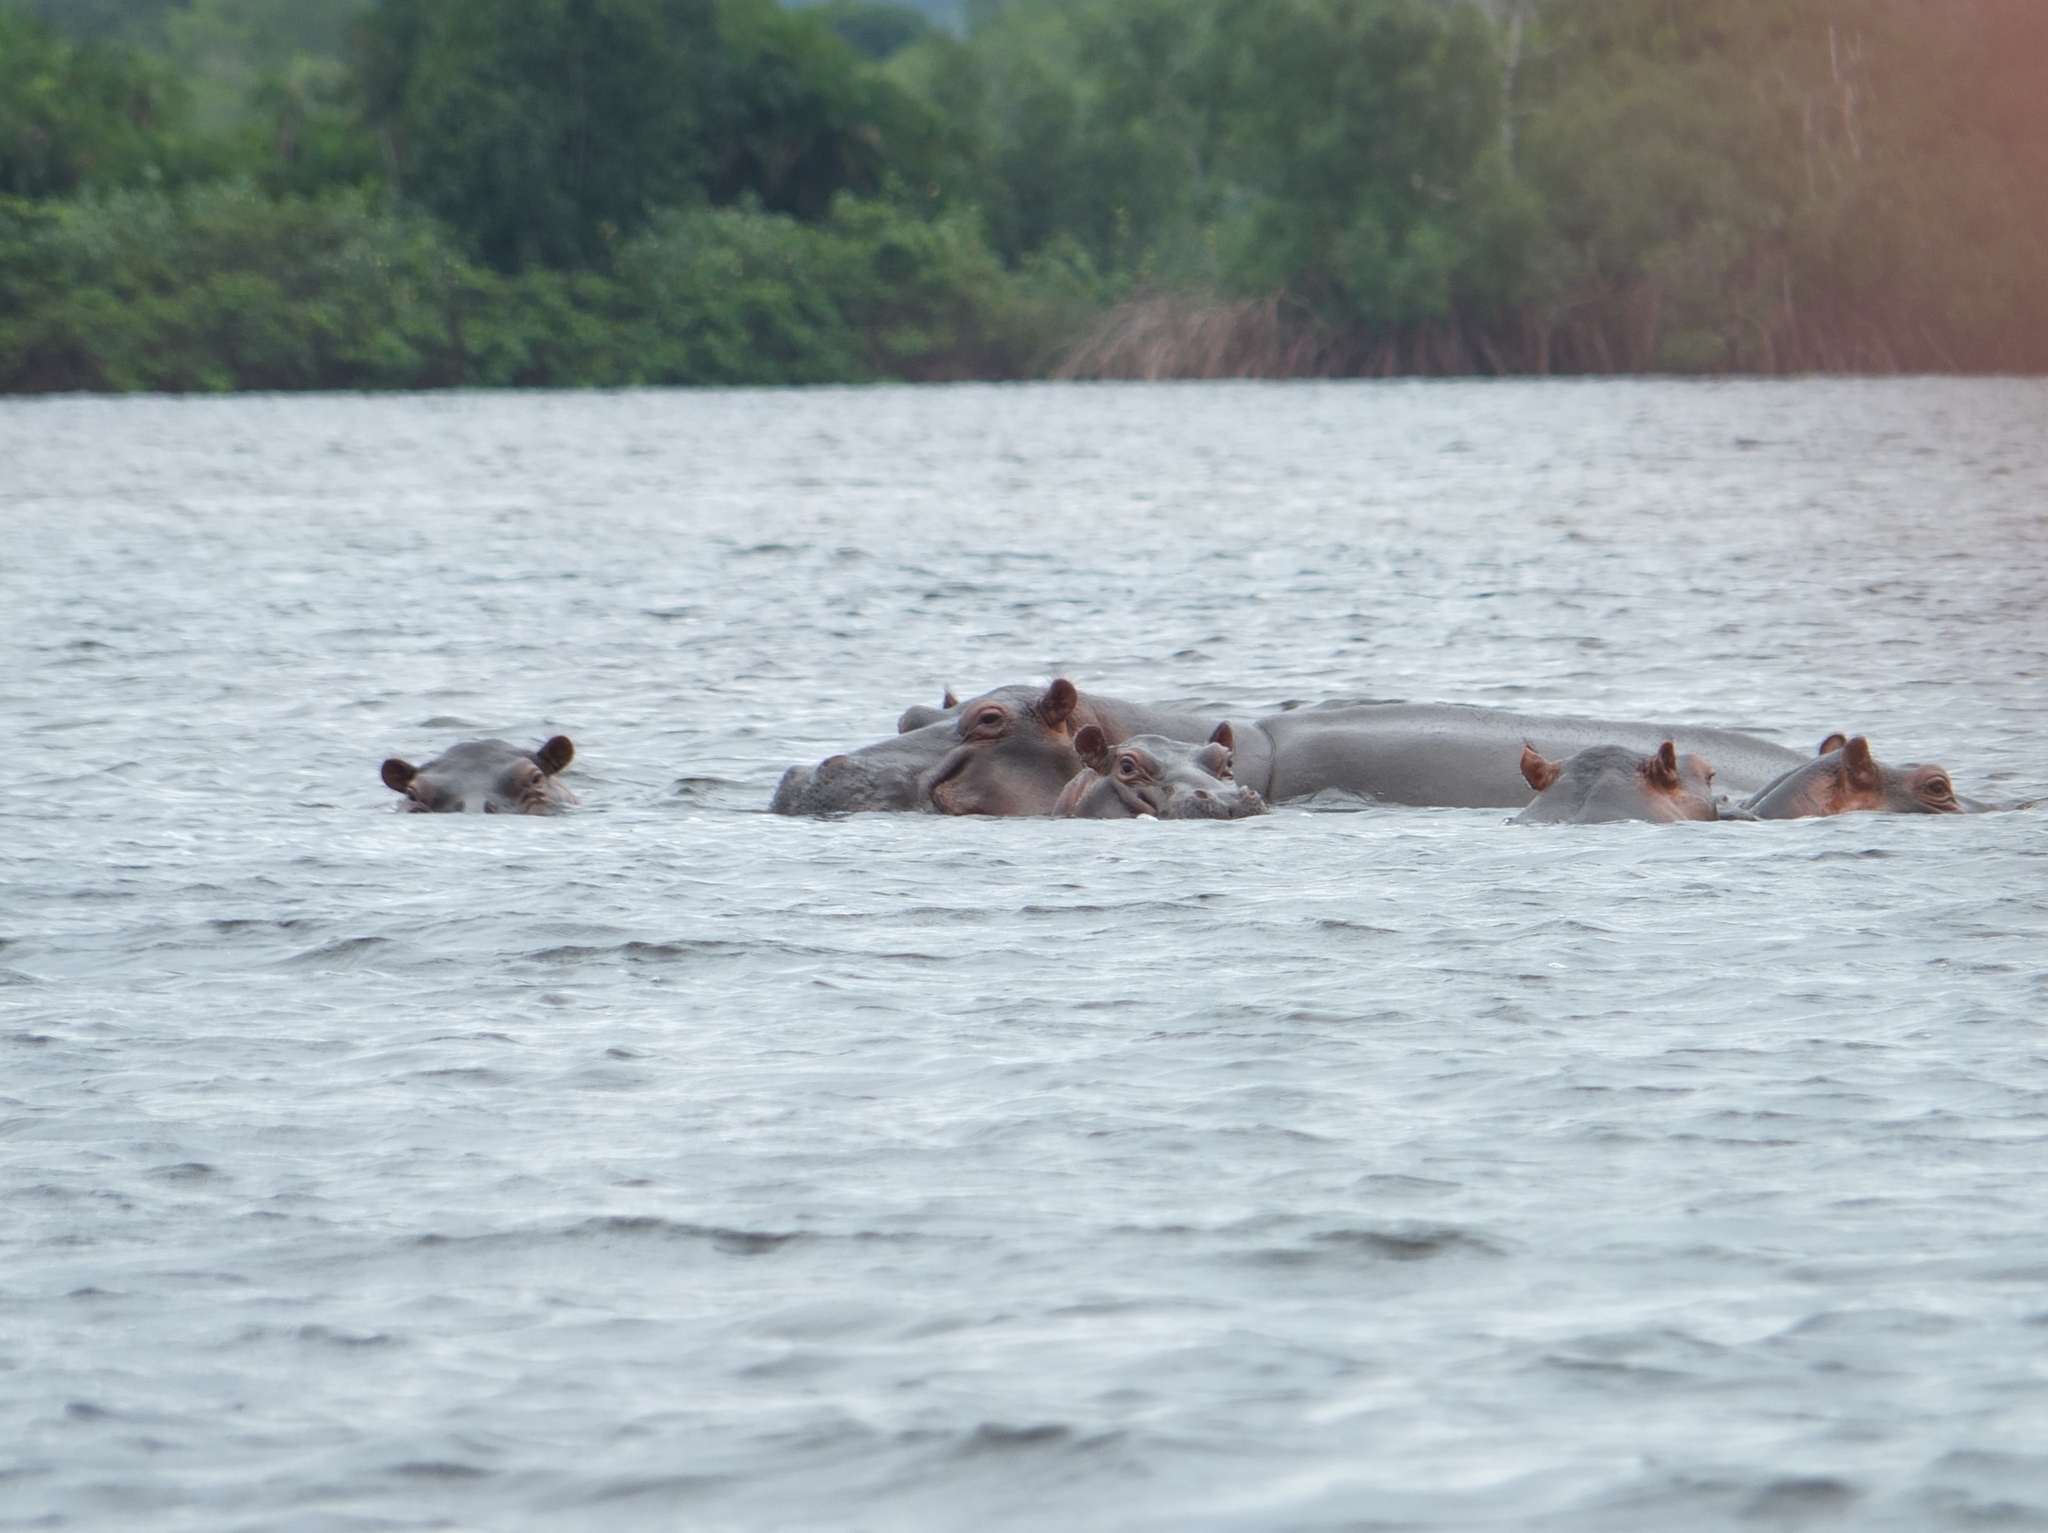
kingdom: Animalia
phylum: Chordata
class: Mammalia
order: Artiodactyla
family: Hippopotamidae
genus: Hippopotamus
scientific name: Hippopotamus amphibius
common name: Common hippopotamus
